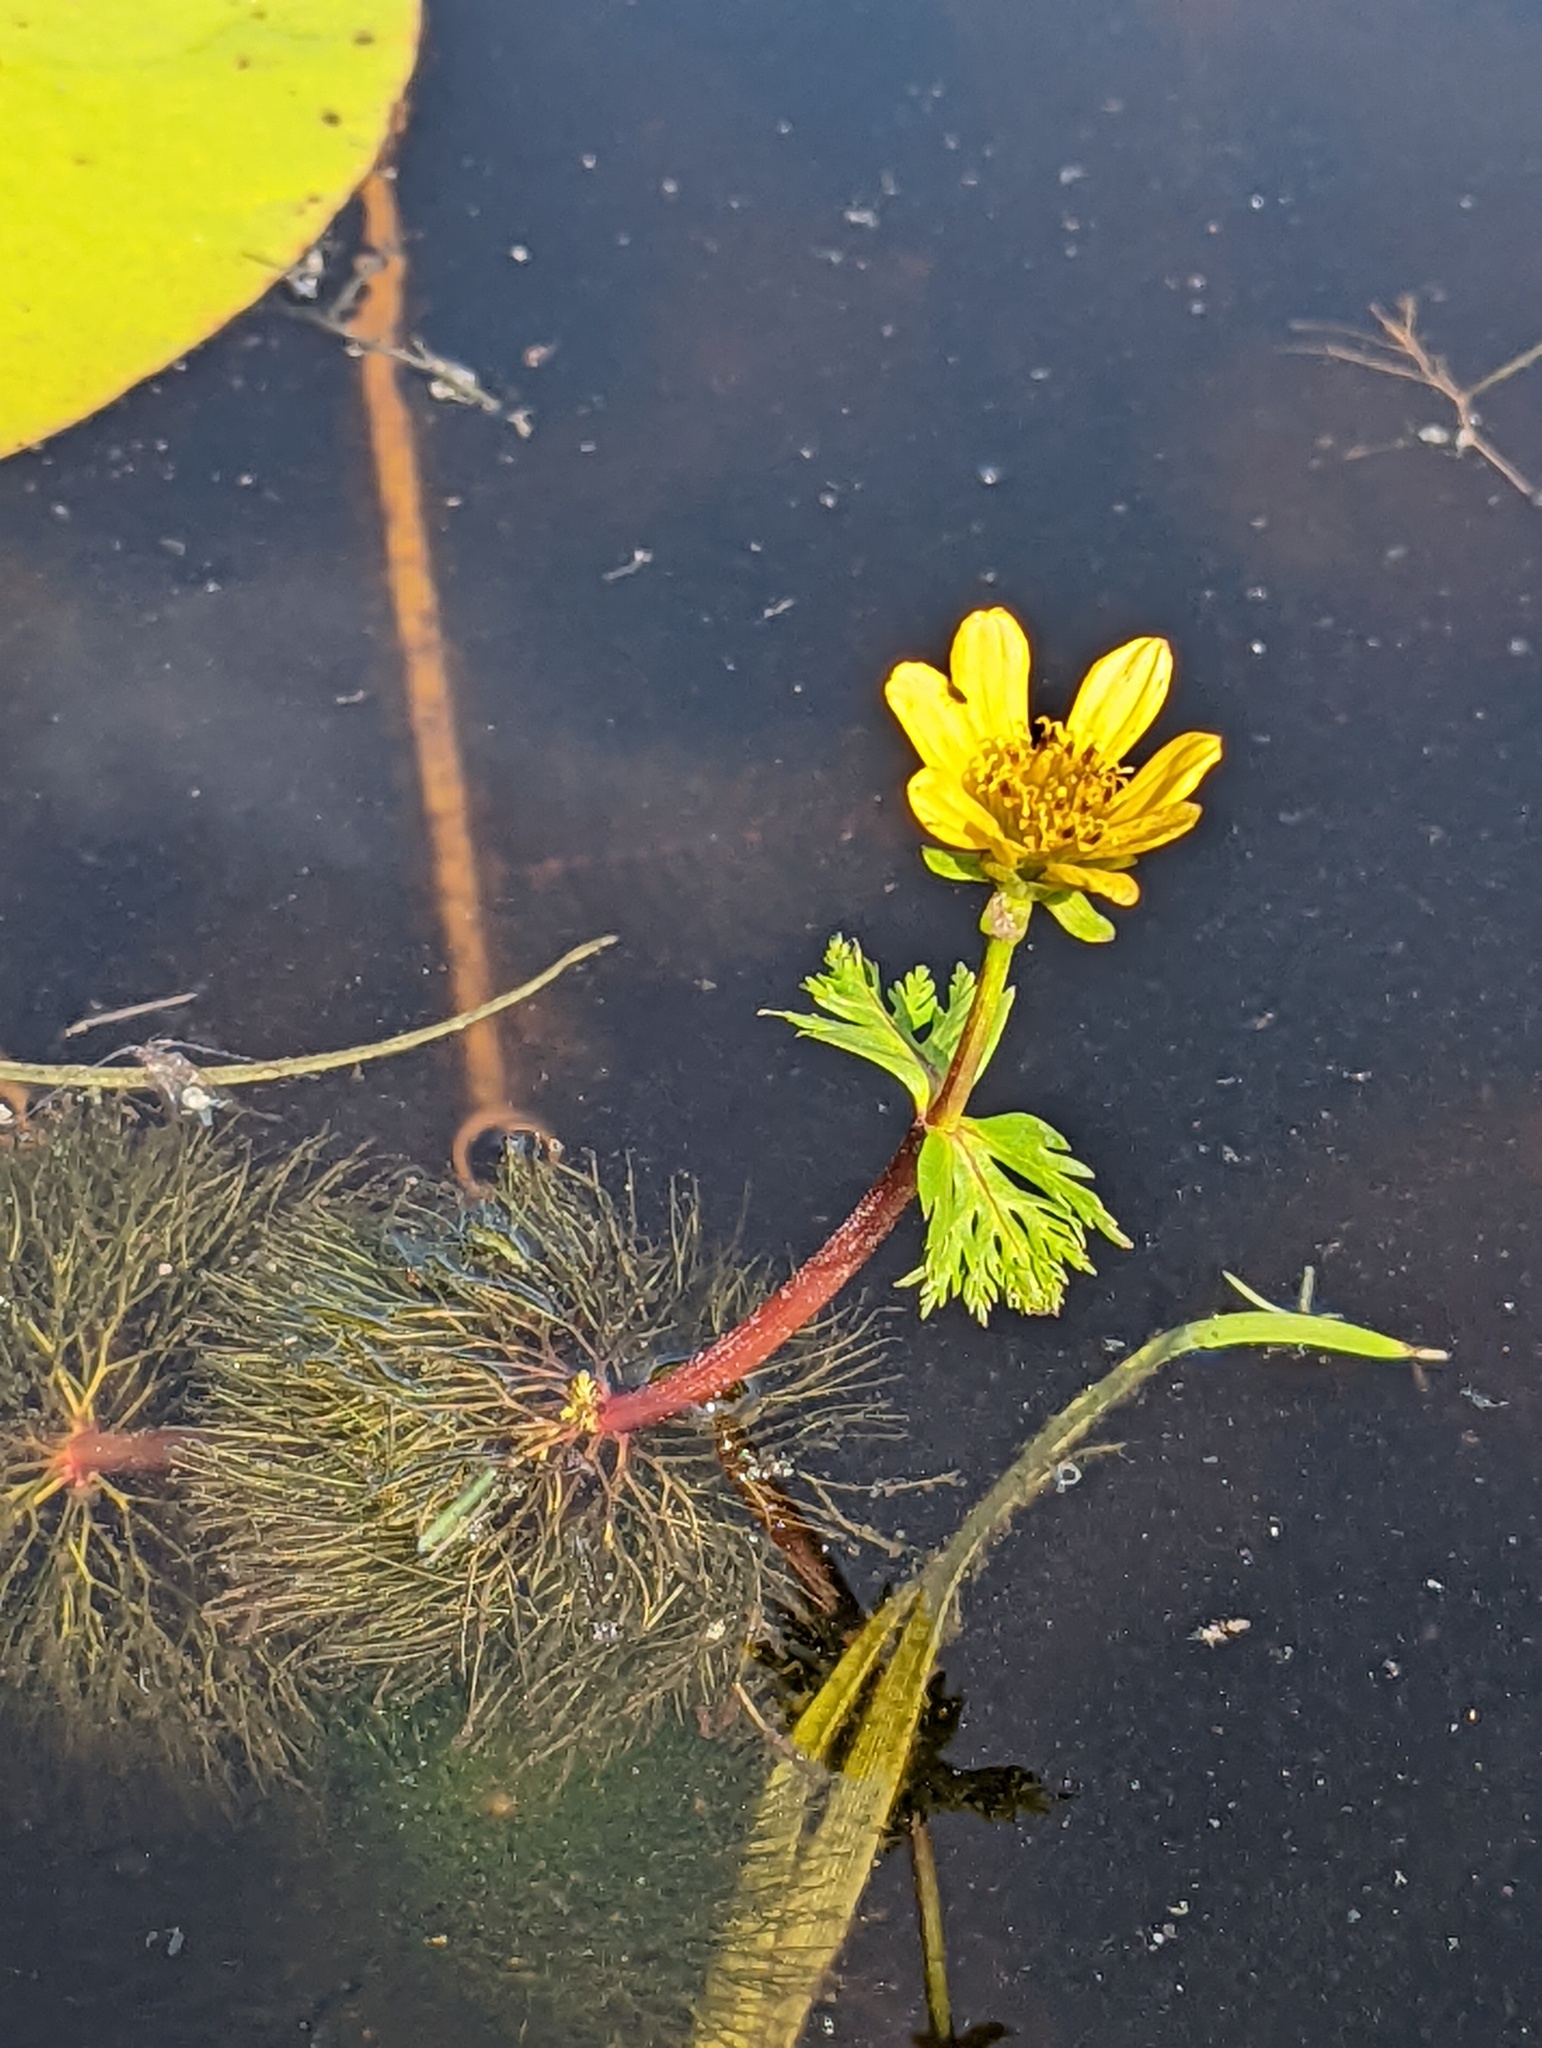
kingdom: Plantae
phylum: Tracheophyta
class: Magnoliopsida
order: Asterales
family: Asteraceae
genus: Bidens
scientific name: Bidens beckii
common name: Beck's beggarticks
